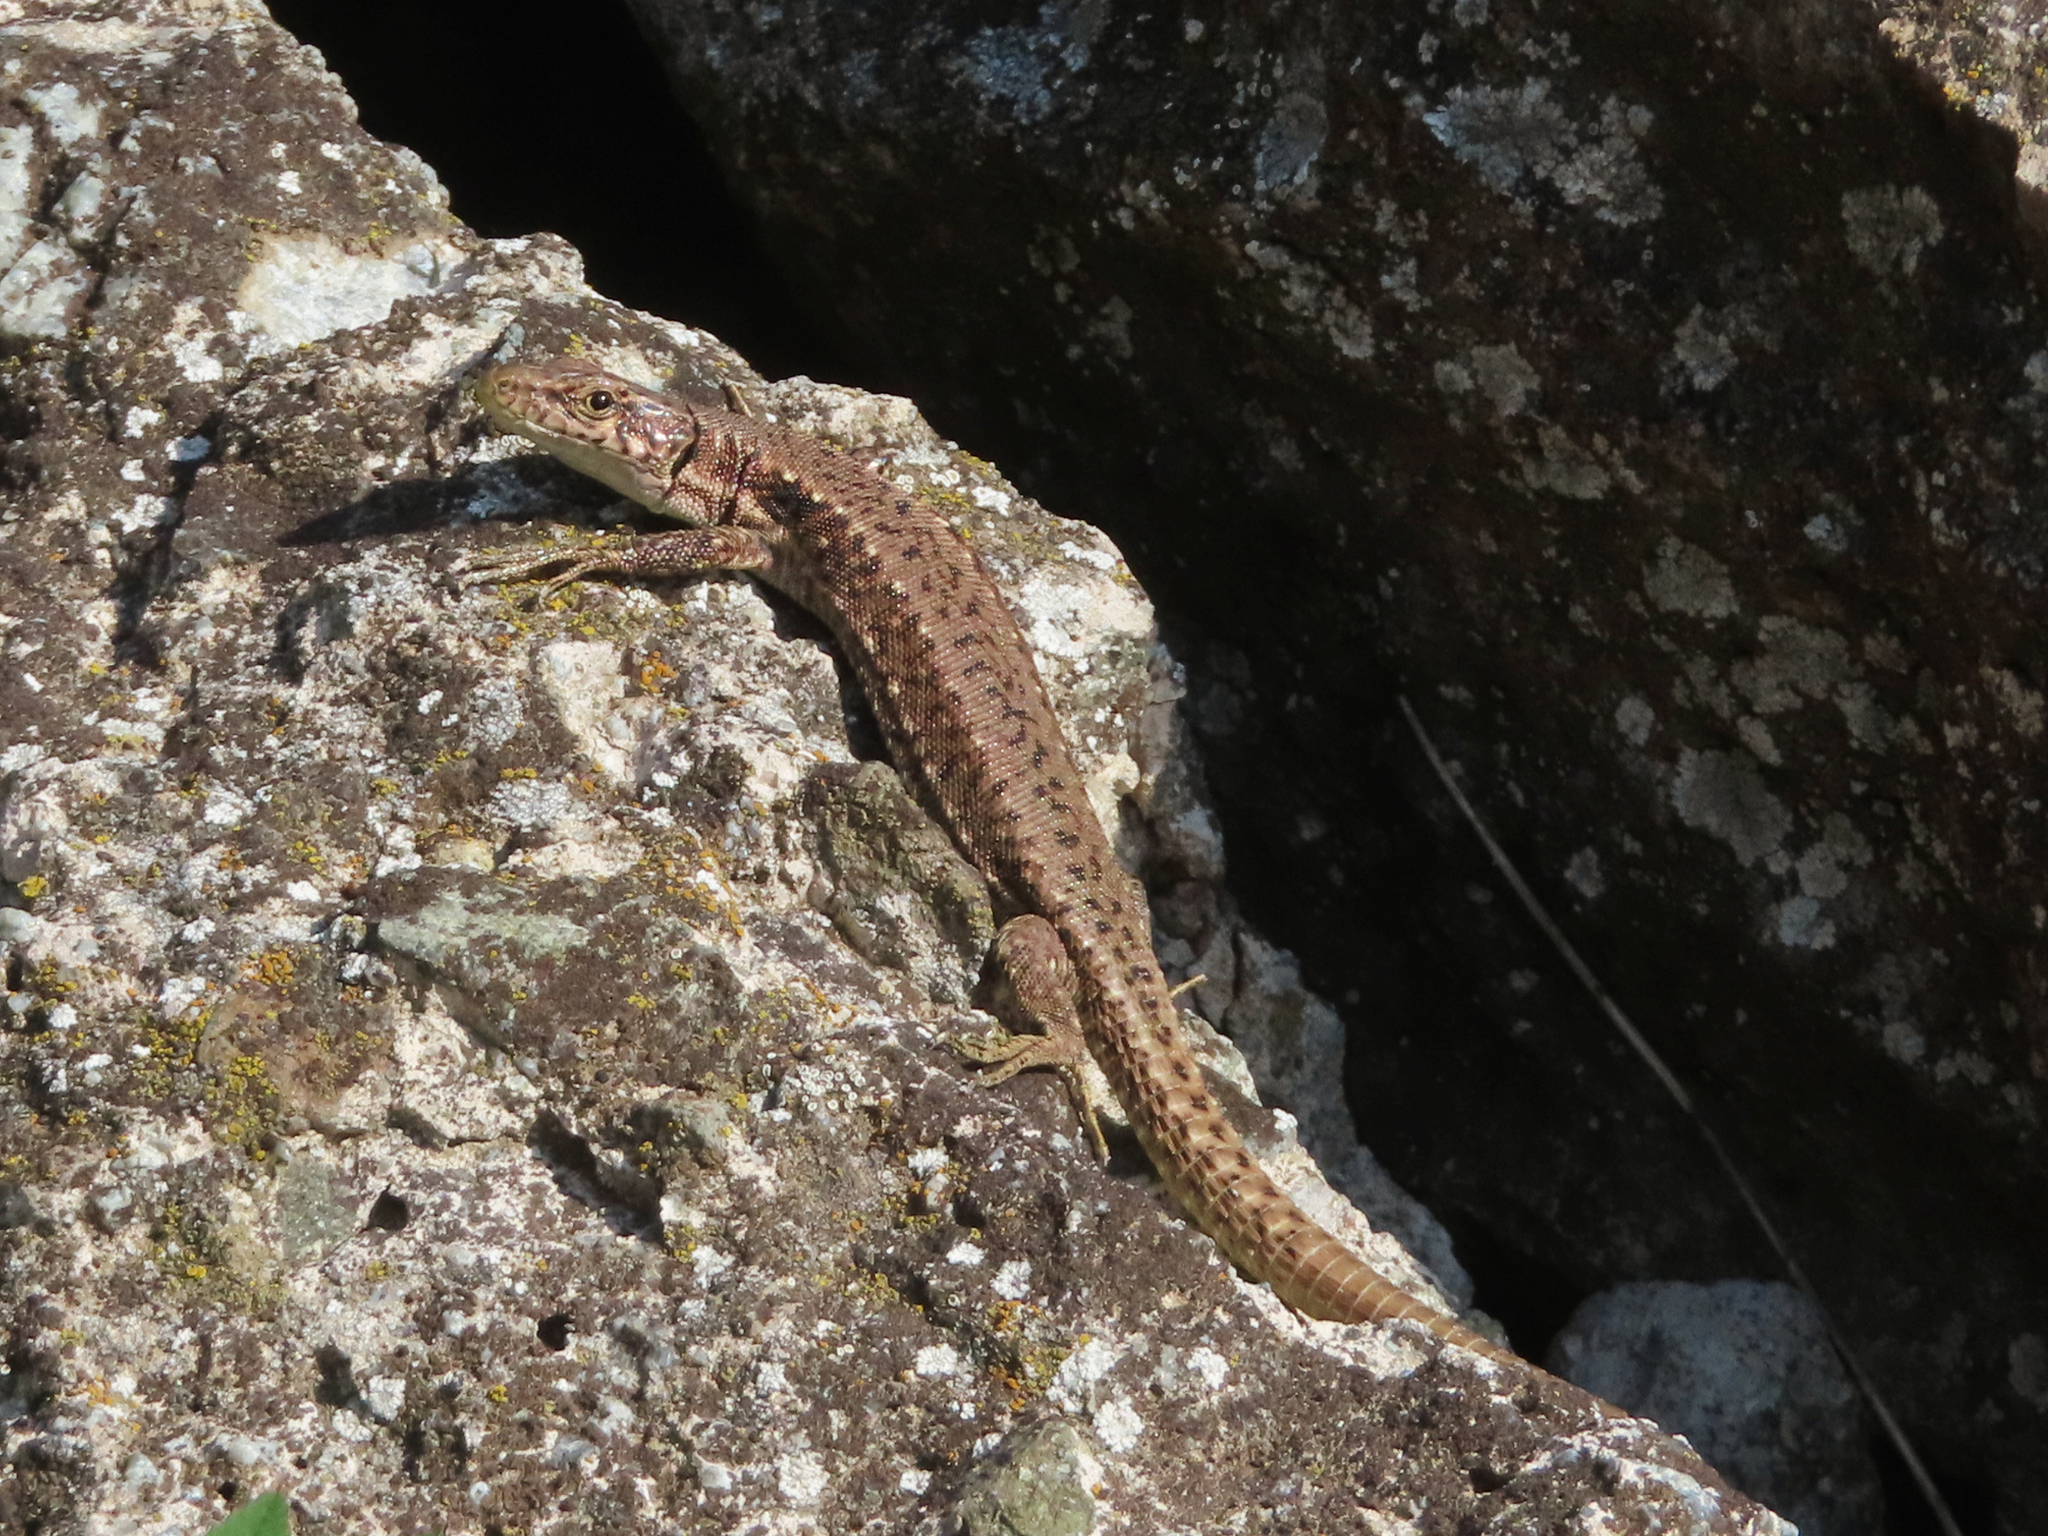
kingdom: Animalia
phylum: Chordata
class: Squamata
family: Lacertidae
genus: Darevskia
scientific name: Darevskia armeniaca
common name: Armenian lizard
